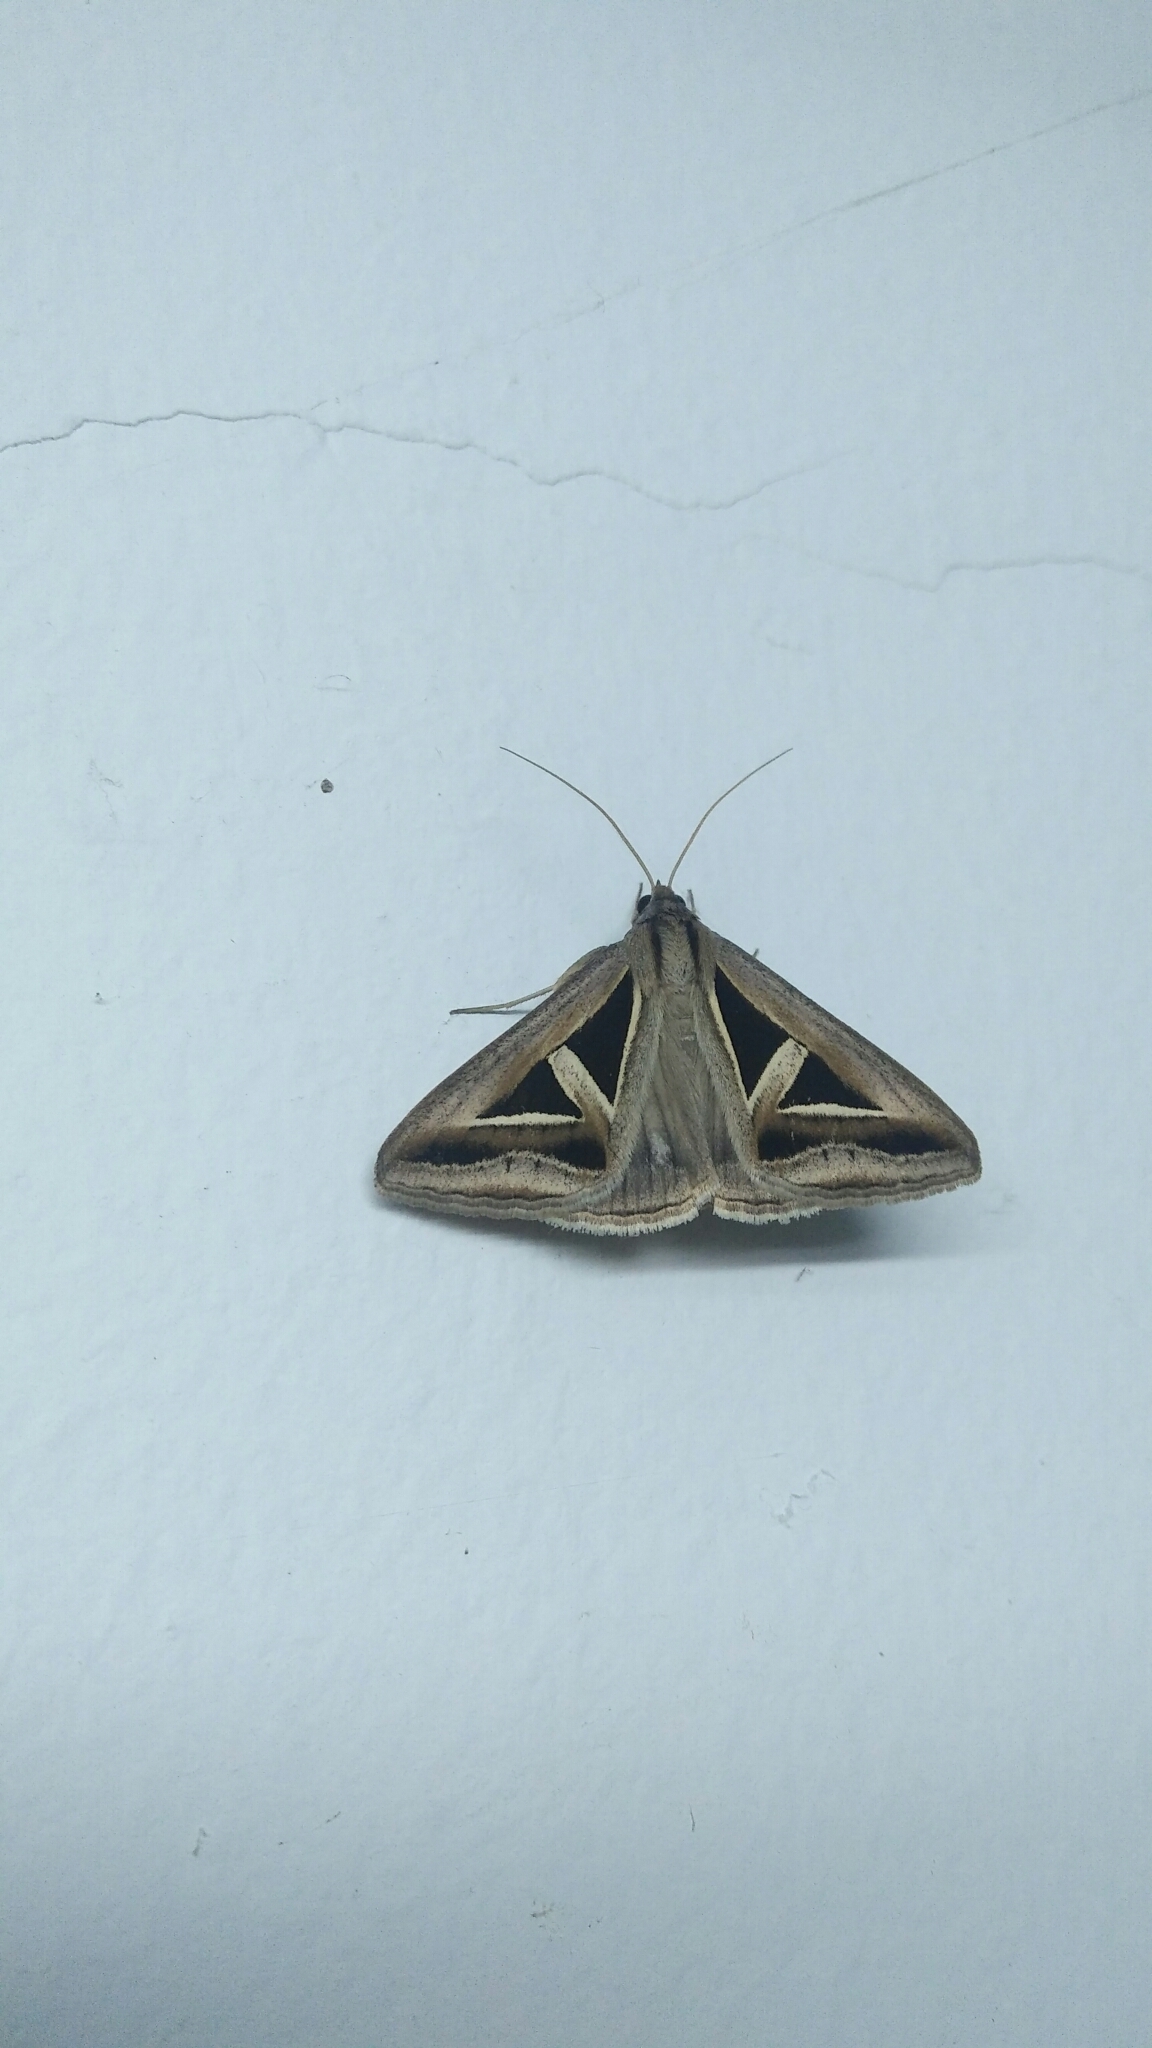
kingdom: Animalia
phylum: Arthropoda
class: Insecta
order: Lepidoptera
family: Erebidae
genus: Trigonodes
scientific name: Trigonodes hyppasia
